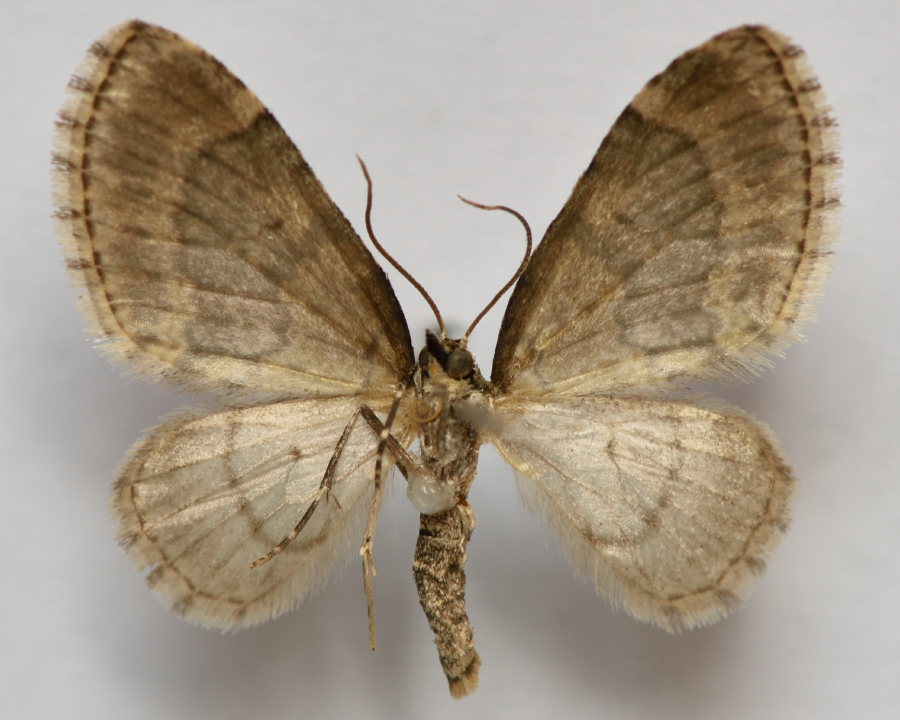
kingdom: Animalia
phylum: Arthropoda
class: Insecta
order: Lepidoptera
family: Geometridae
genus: Acasis
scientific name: Acasis viretata
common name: Yellow-barred brindle
